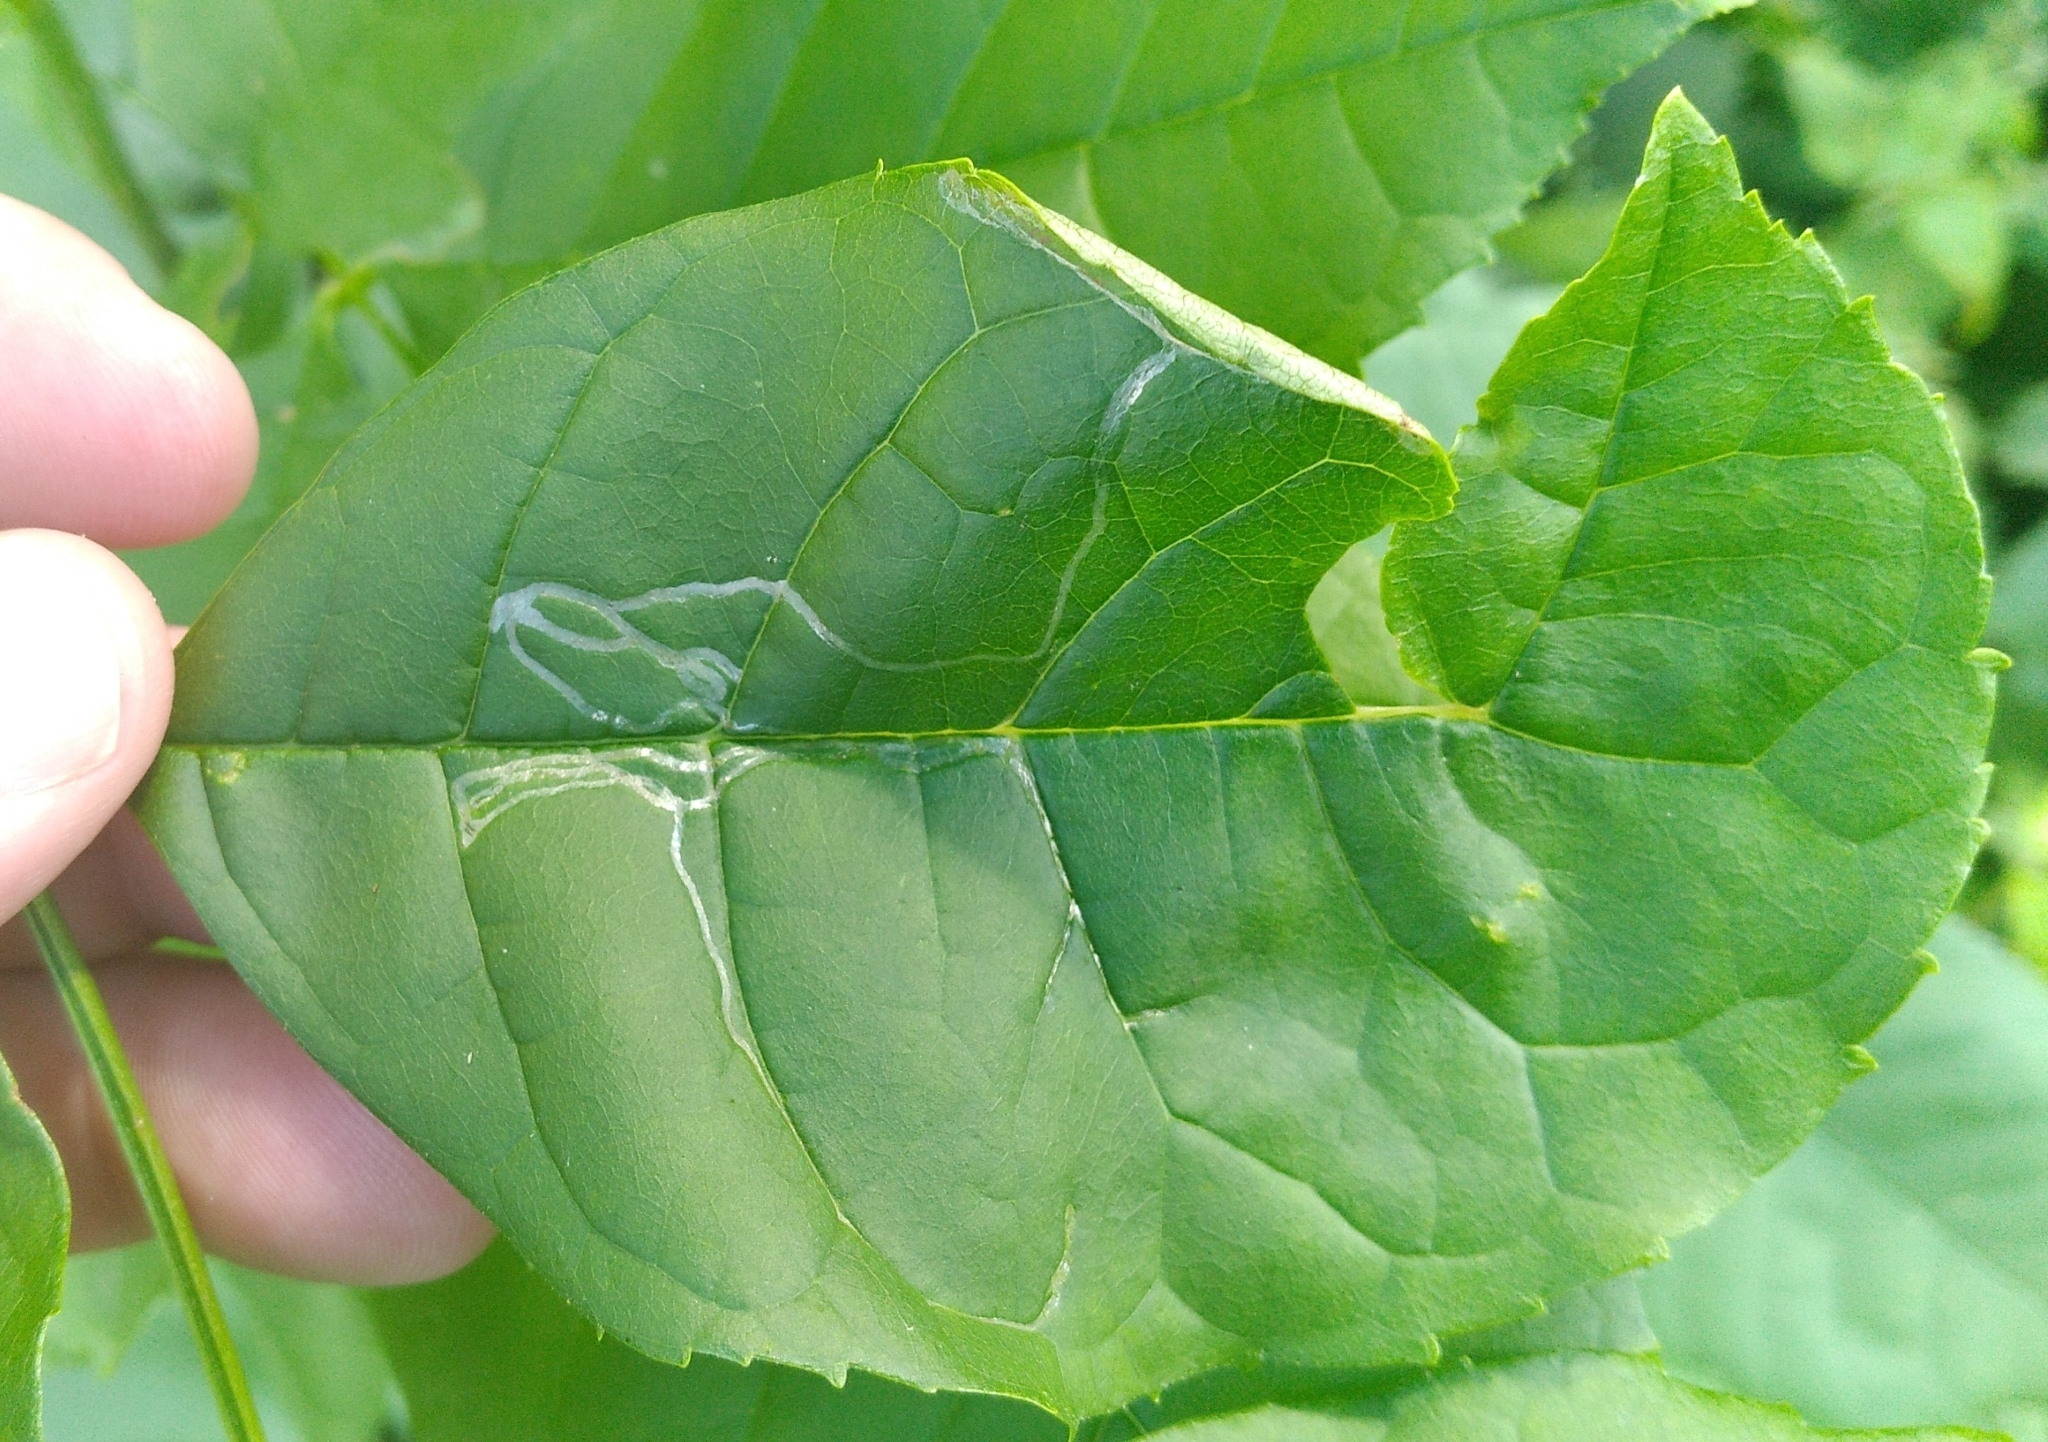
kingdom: Animalia
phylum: Arthropoda
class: Insecta
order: Lepidoptera
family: Gracillariidae
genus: Caloptilia
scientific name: Caloptilia fraxinella
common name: Ash leaf cone roller
